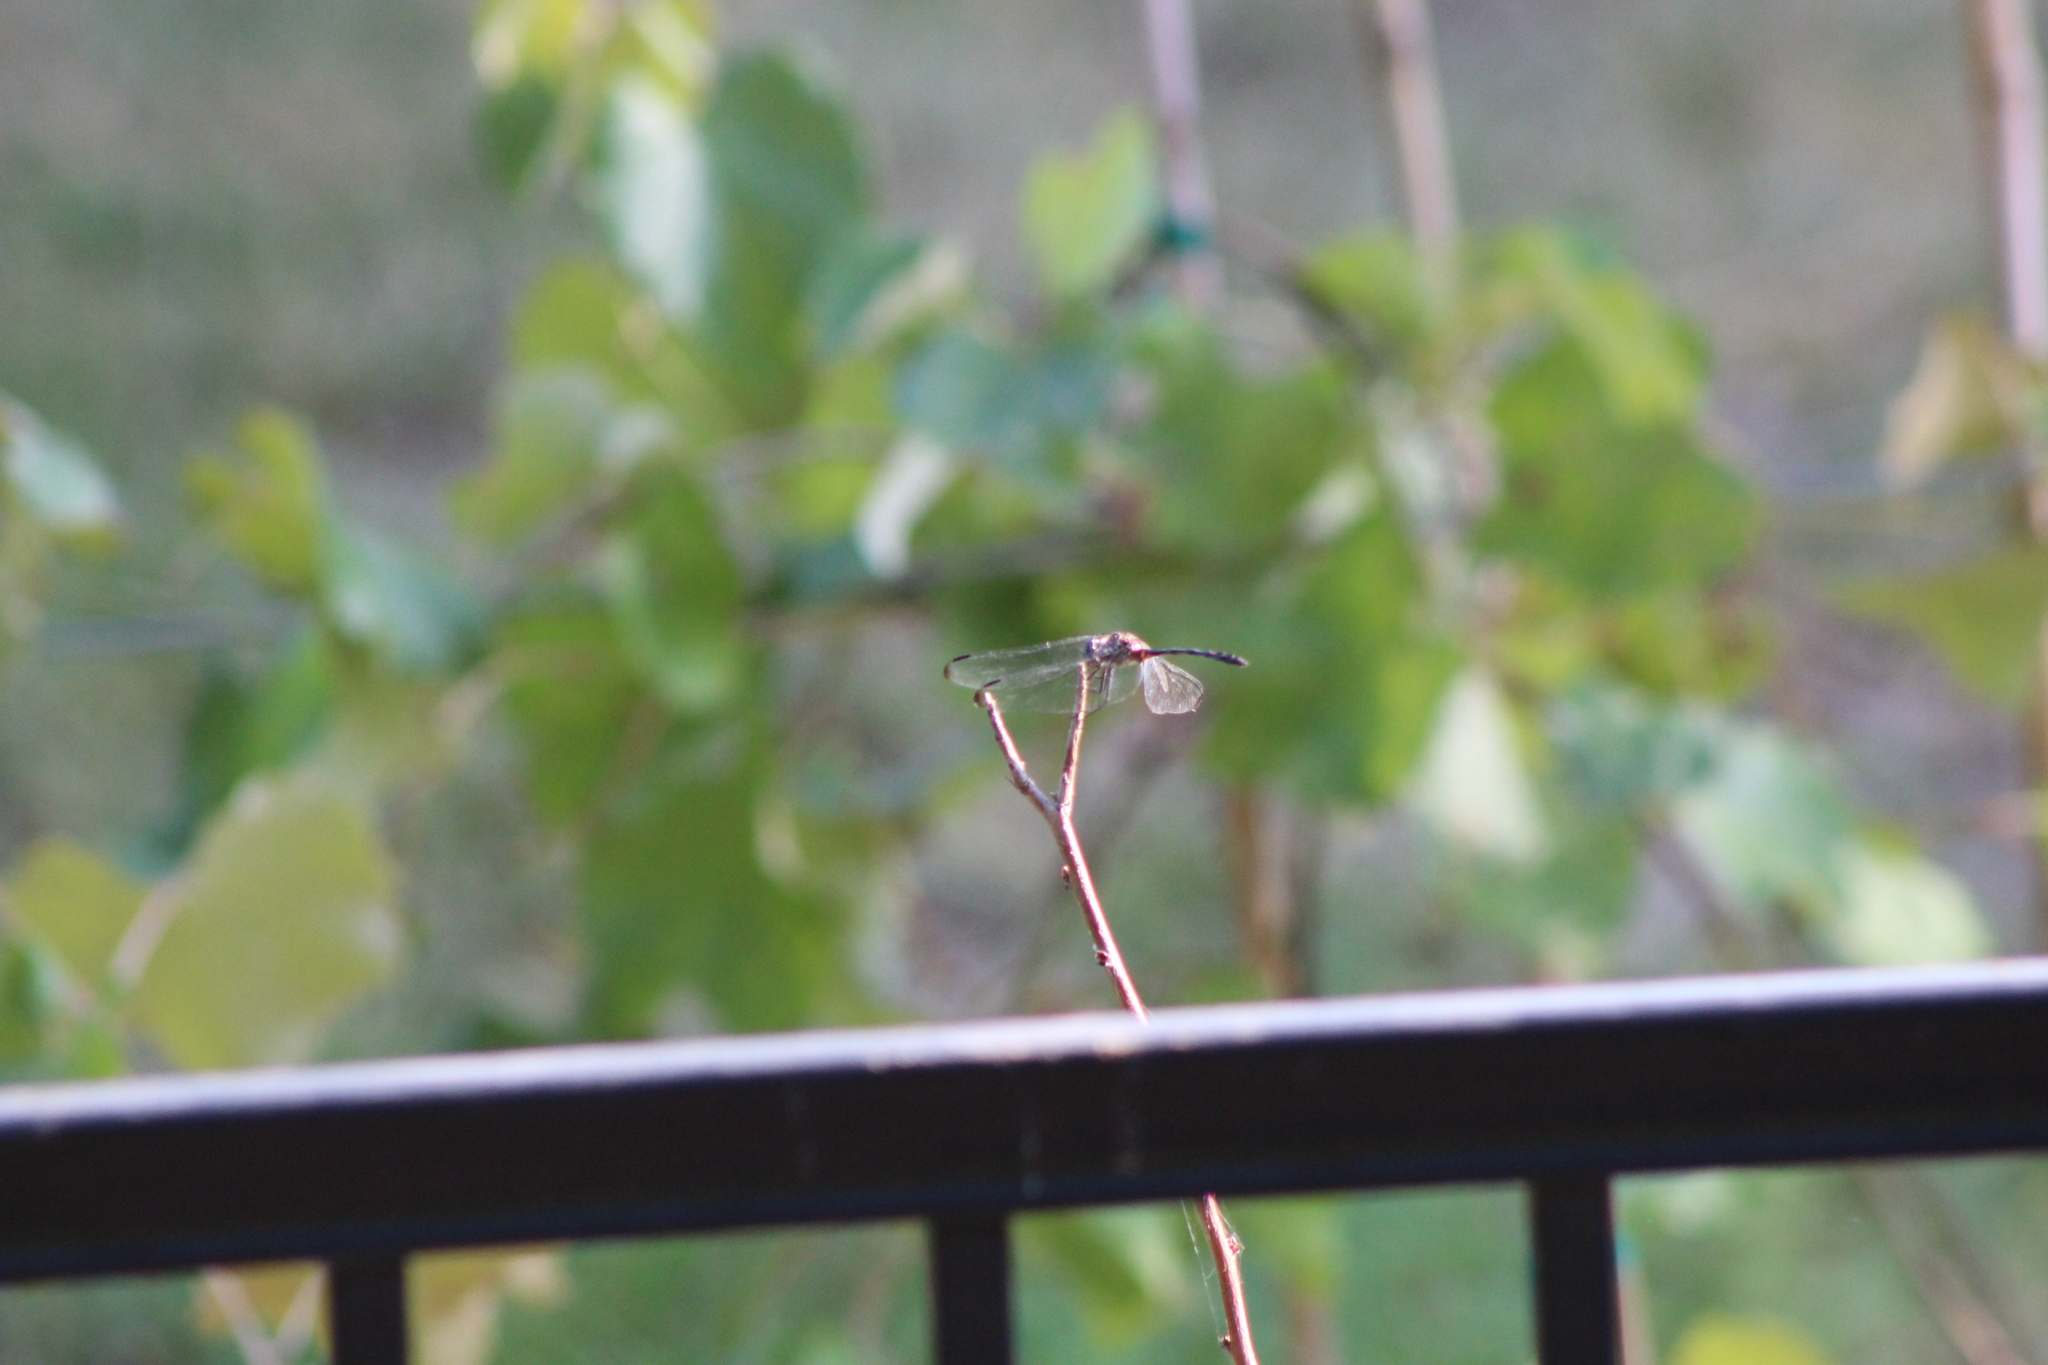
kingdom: Animalia
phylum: Arthropoda
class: Insecta
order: Odonata
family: Libellulidae
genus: Dythemis
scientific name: Dythemis velox
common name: Swift setwing
